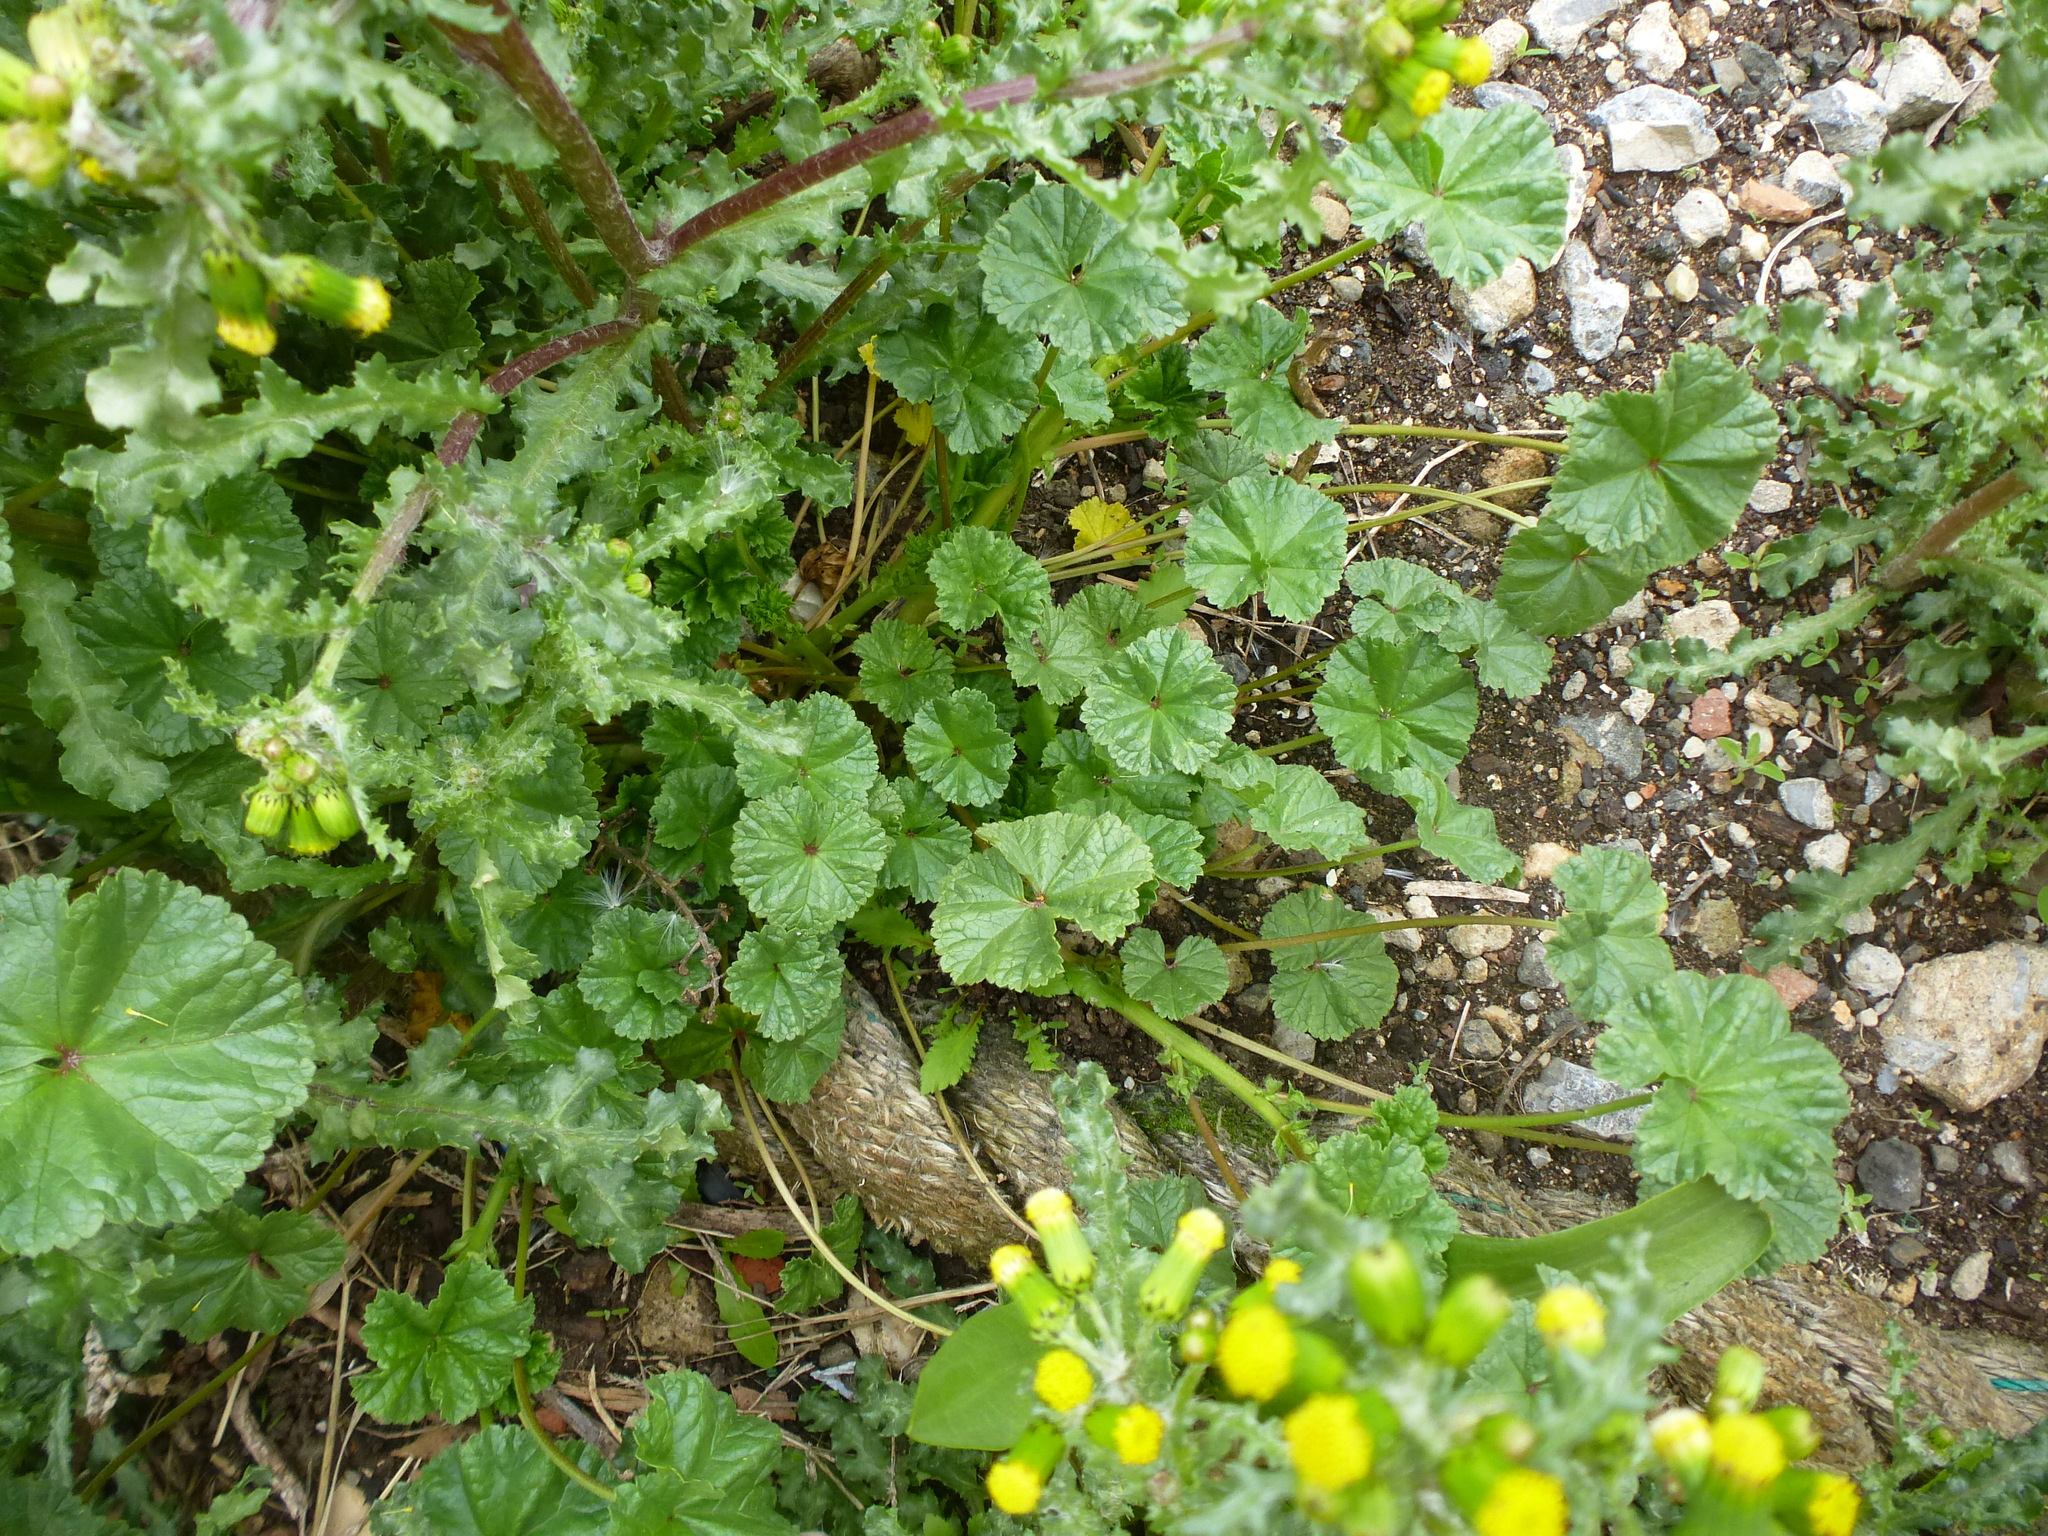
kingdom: Plantae
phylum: Tracheophyta
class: Magnoliopsida
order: Malvales
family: Malvaceae
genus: Malva
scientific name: Malva neglecta
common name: Common mallow
